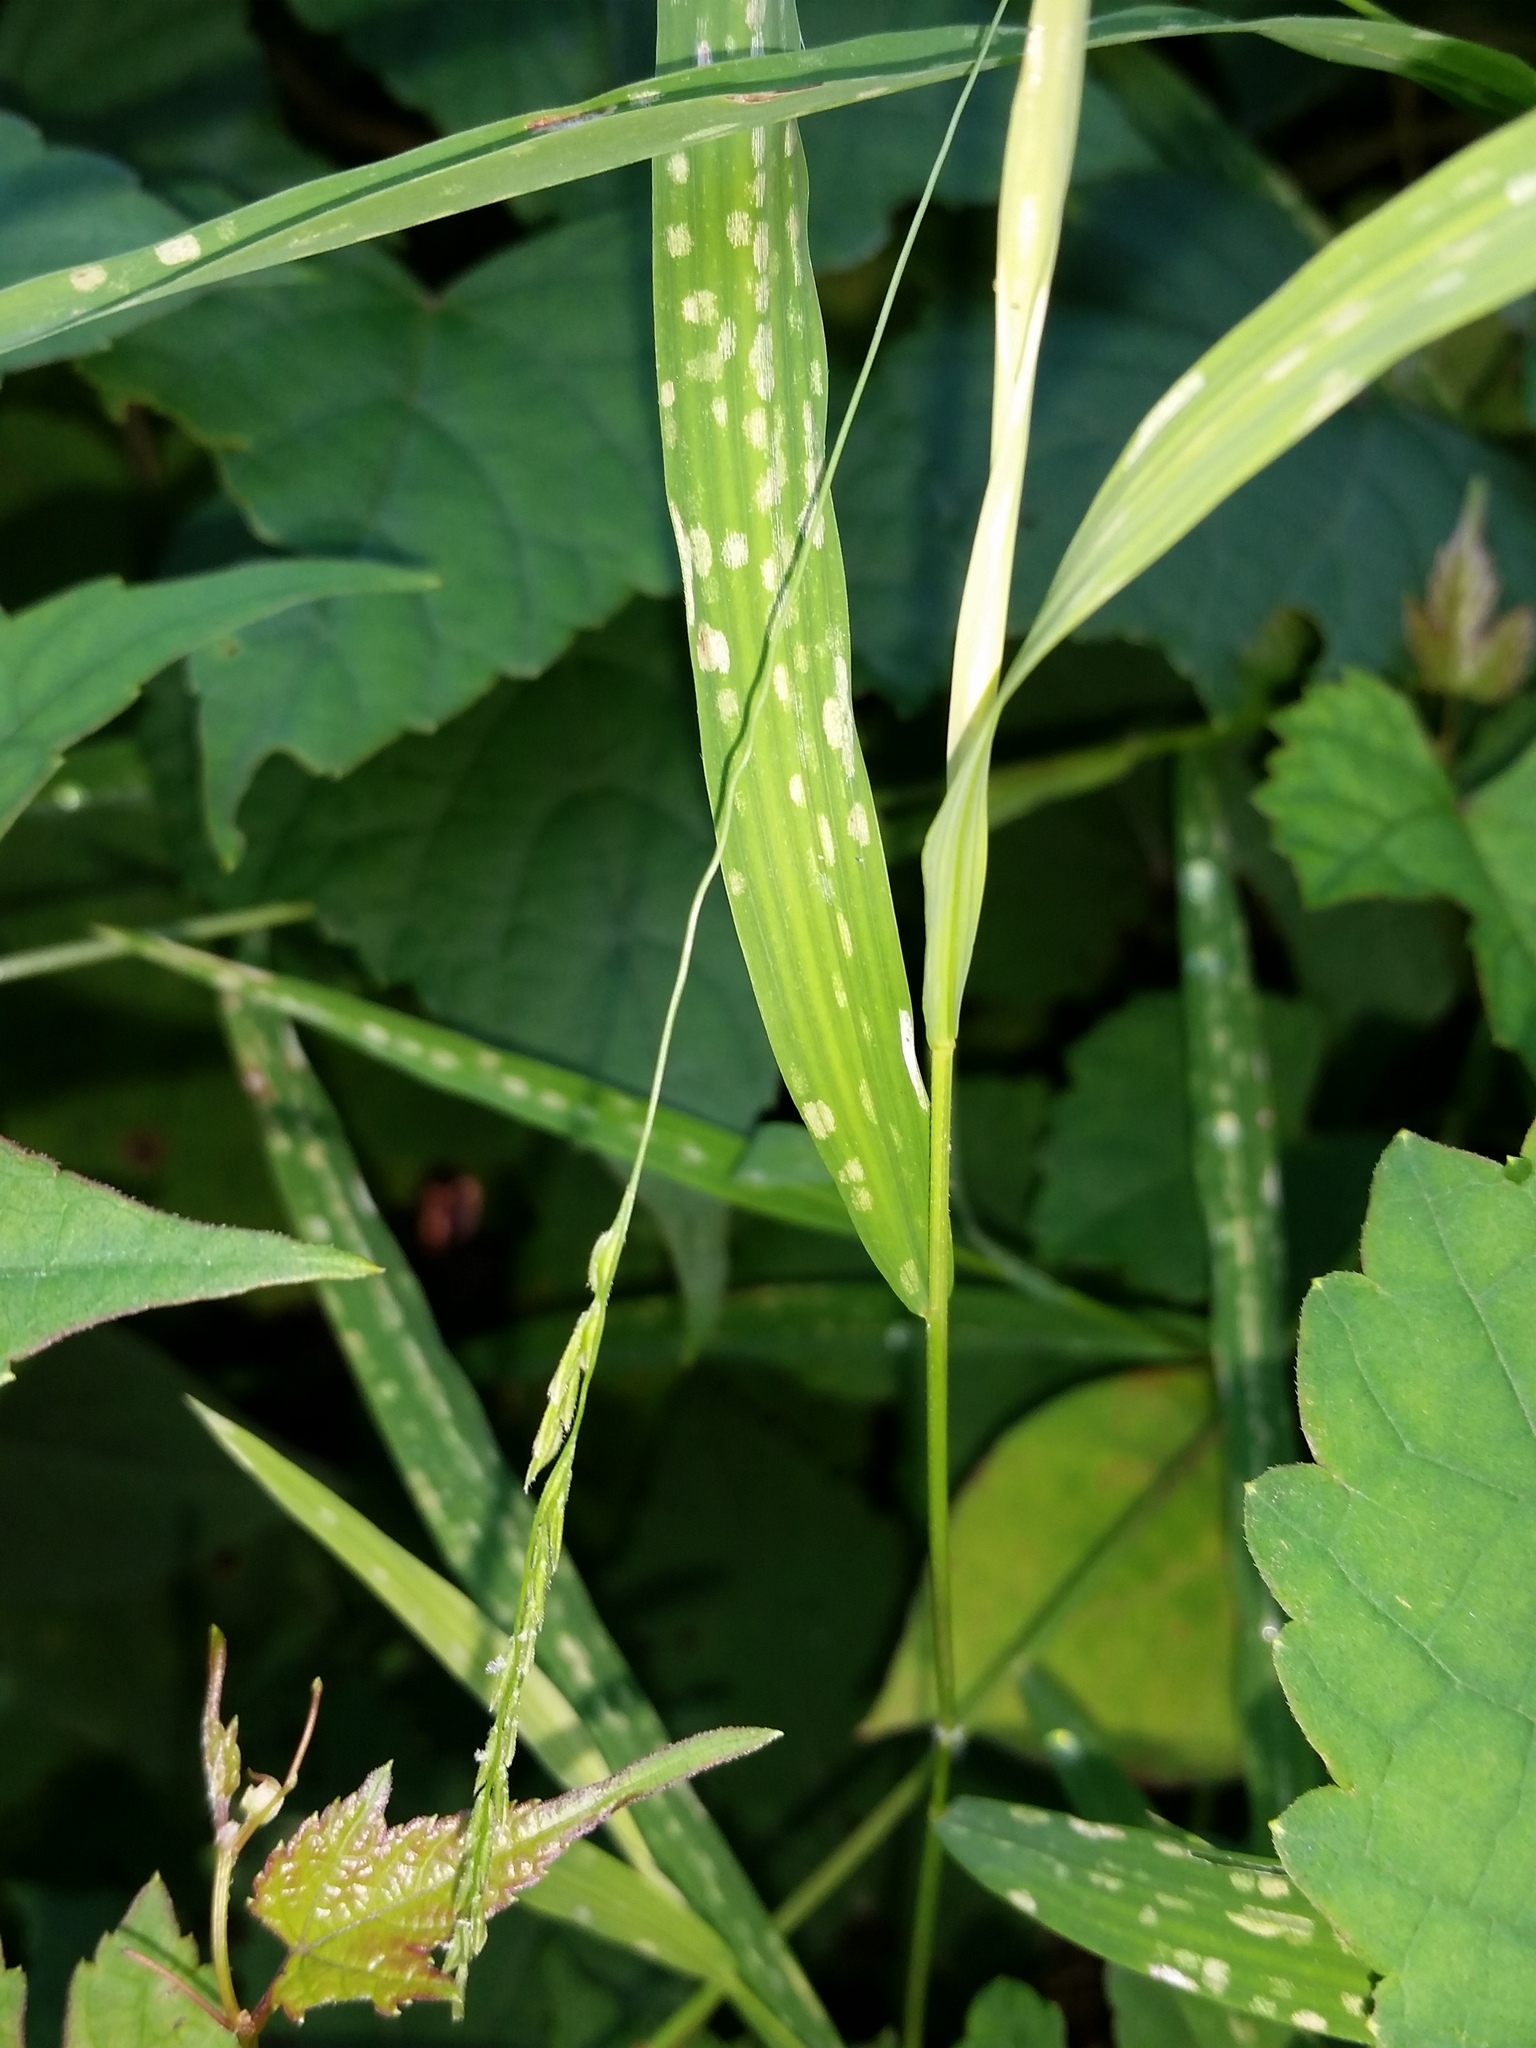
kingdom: Plantae
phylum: Tracheophyta
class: Liliopsida
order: Poales
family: Poaceae
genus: Leersia
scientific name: Leersia virginica
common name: White cutgrass
